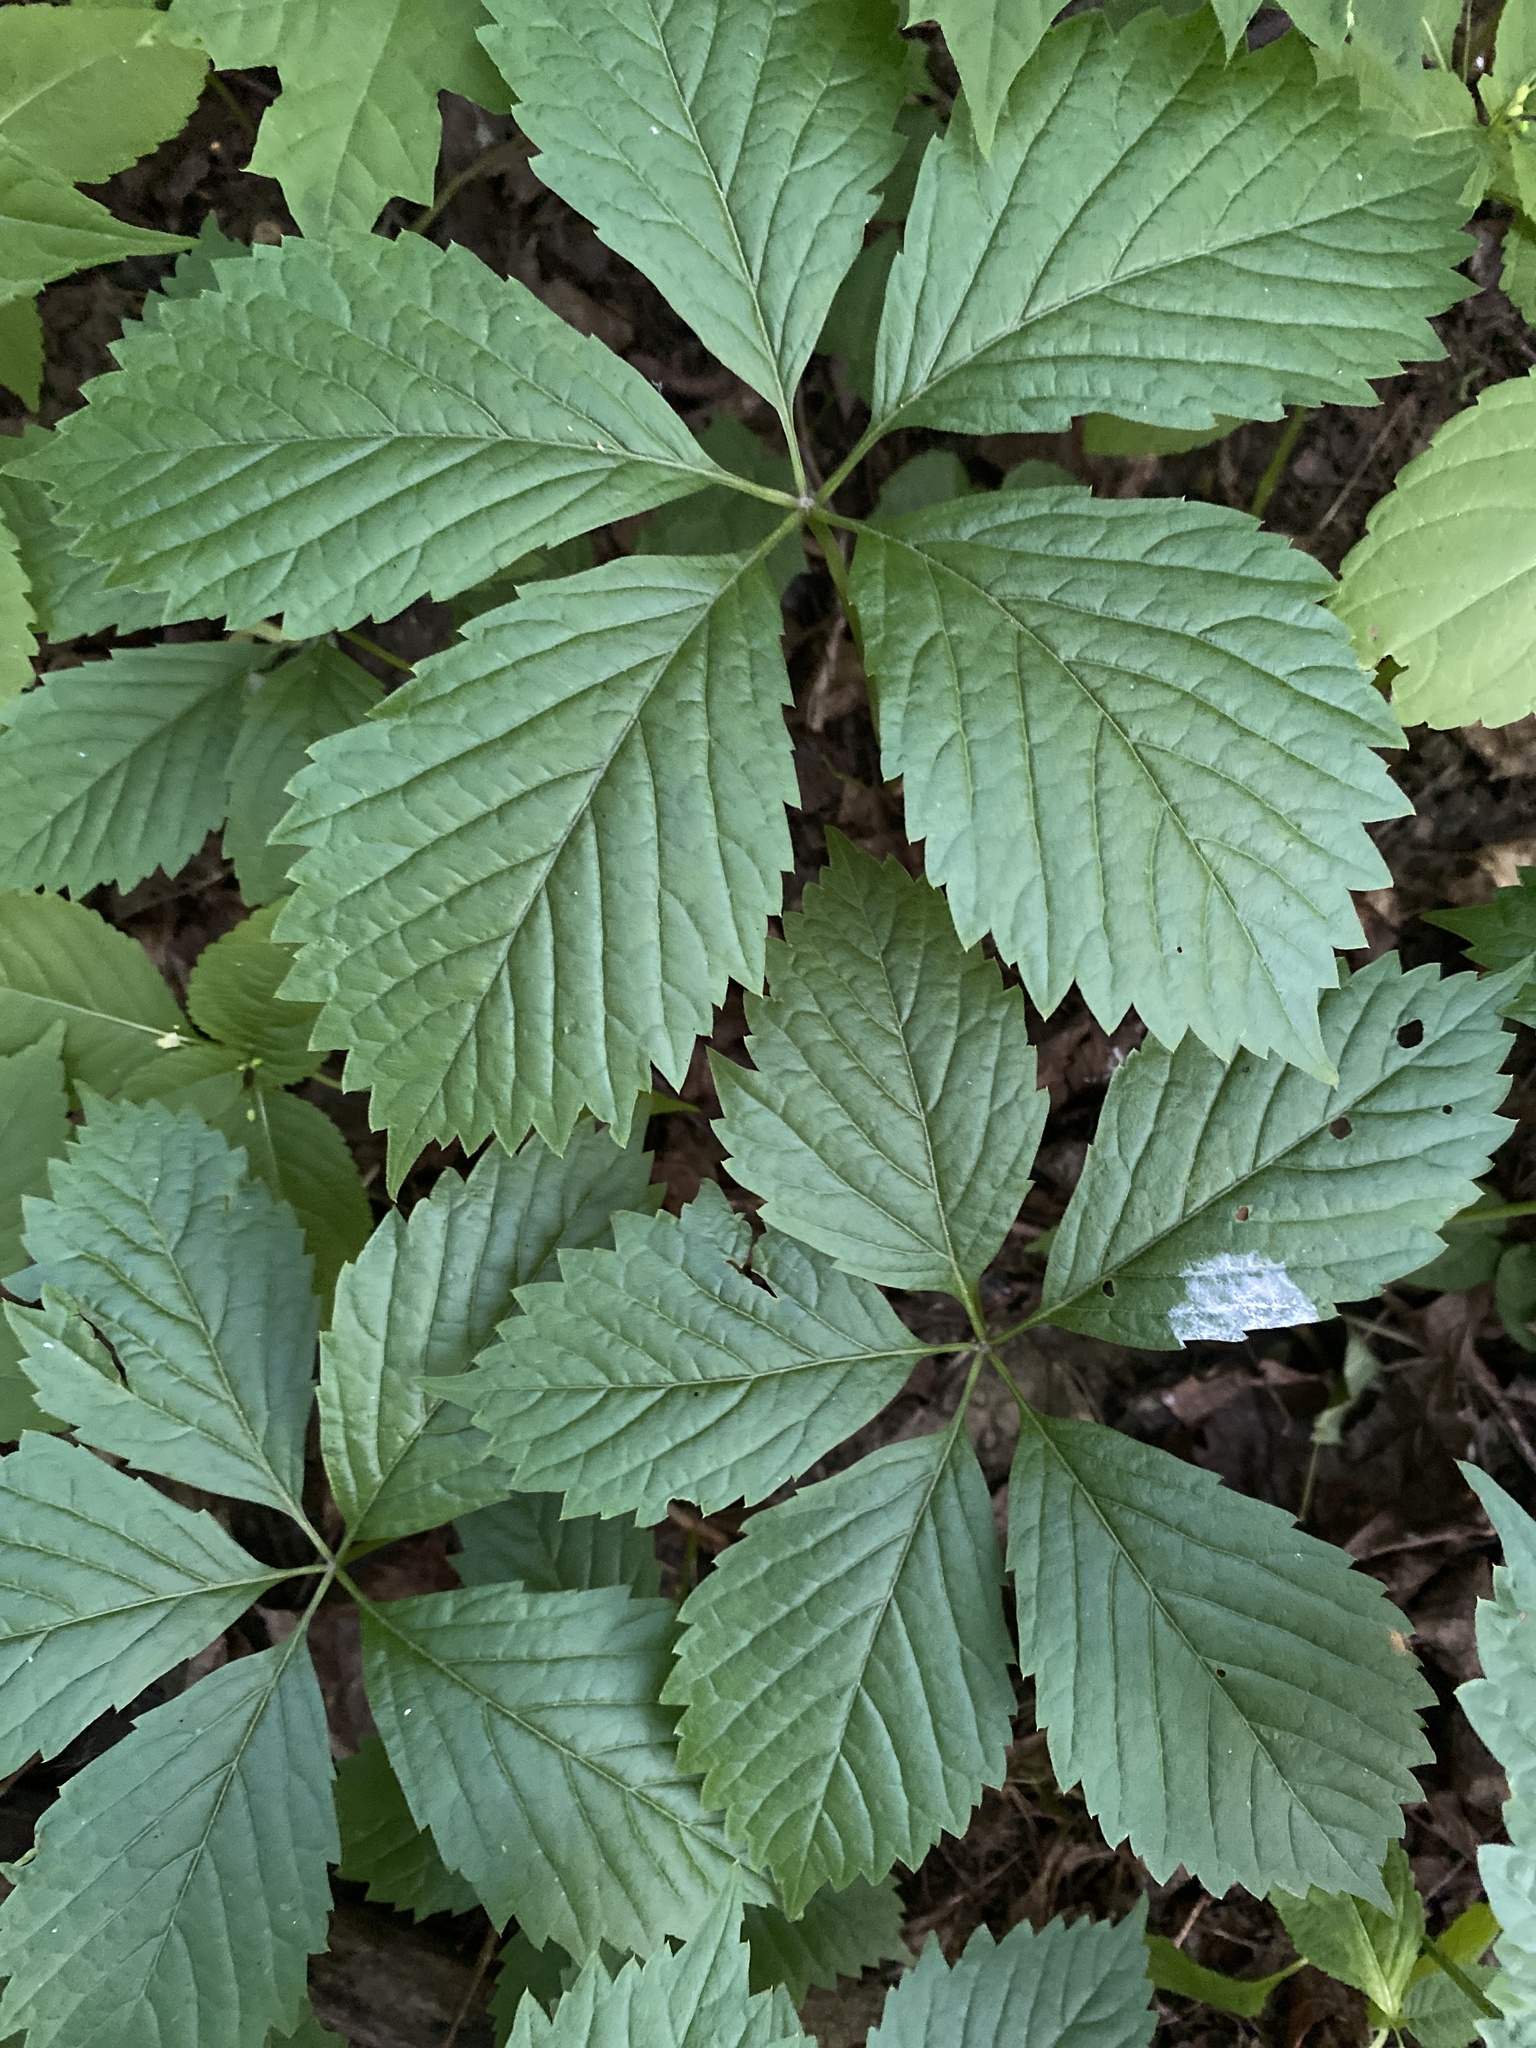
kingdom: Plantae
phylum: Tracheophyta
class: Magnoliopsida
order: Vitales
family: Vitaceae
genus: Parthenocissus
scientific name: Parthenocissus inserta
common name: False virginia-creeper
